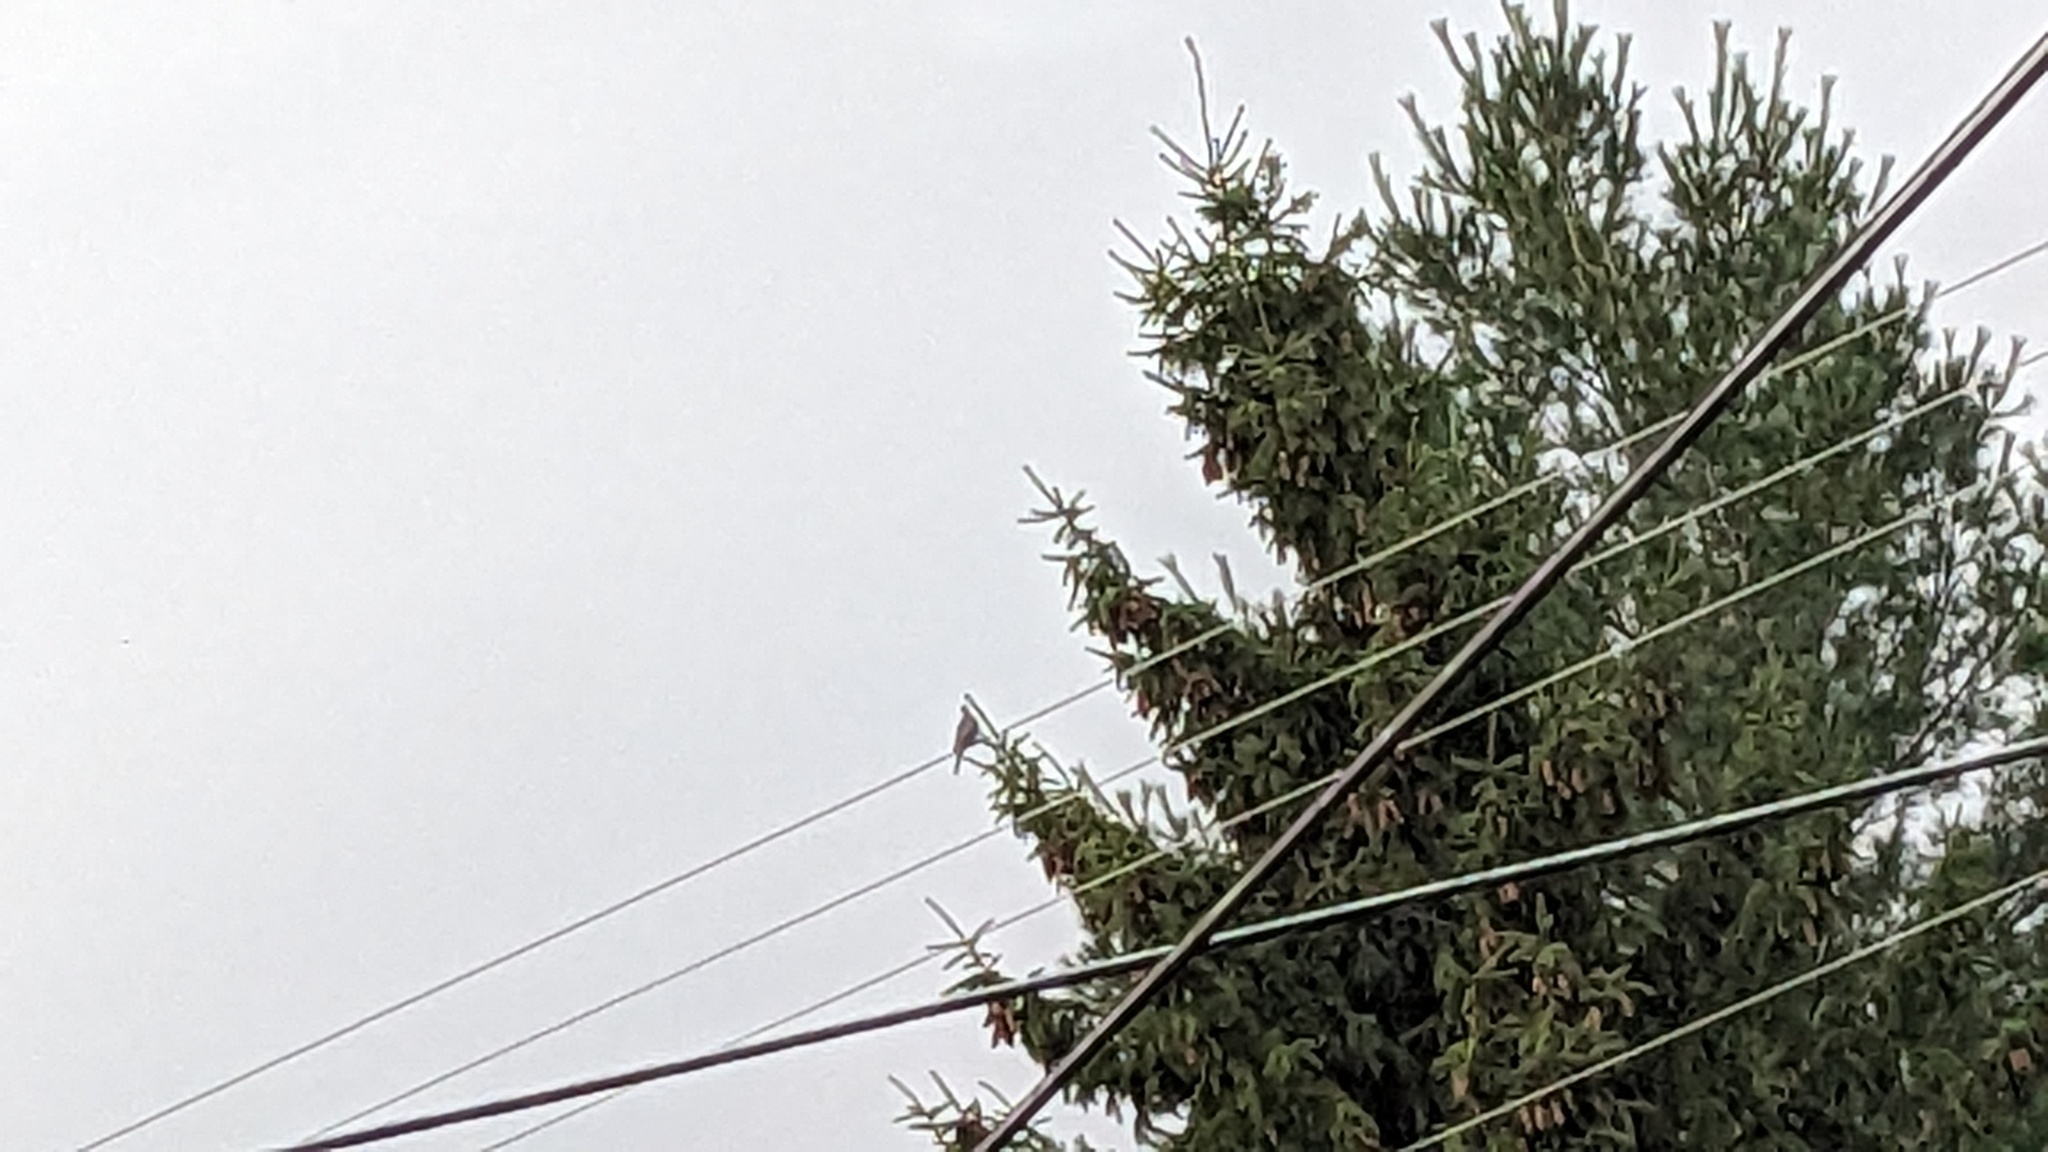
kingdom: Animalia
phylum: Chordata
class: Aves
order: Columbiformes
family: Columbidae
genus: Zenaida
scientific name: Zenaida macroura
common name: Mourning dove
